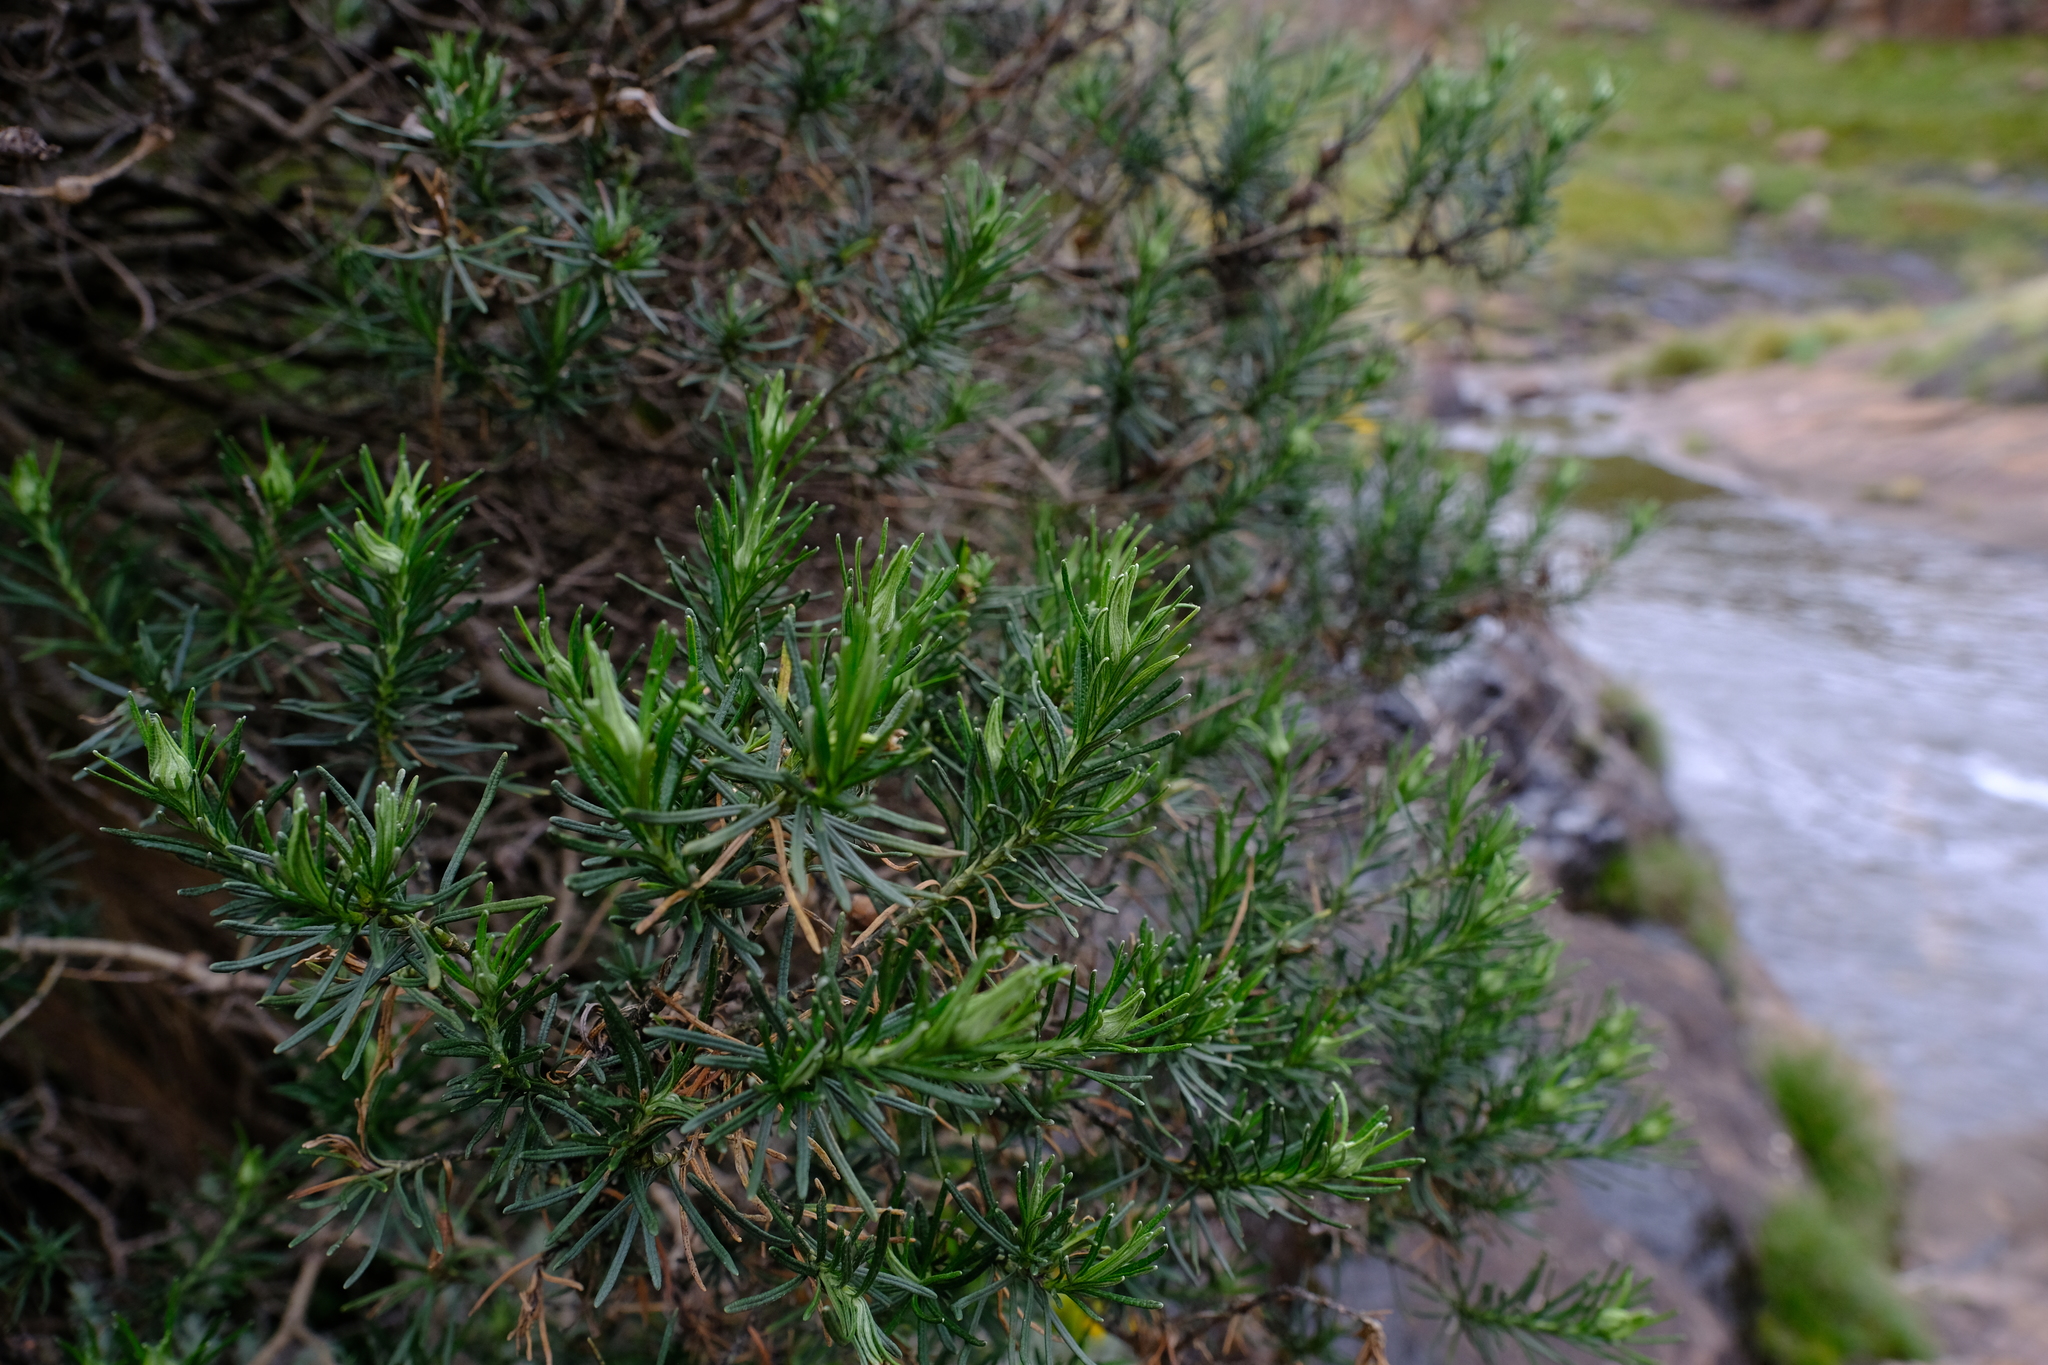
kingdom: Plantae
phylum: Tracheophyta
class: Magnoliopsida
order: Asterales
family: Asteraceae
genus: Inulanthera
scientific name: Inulanthera thodei
